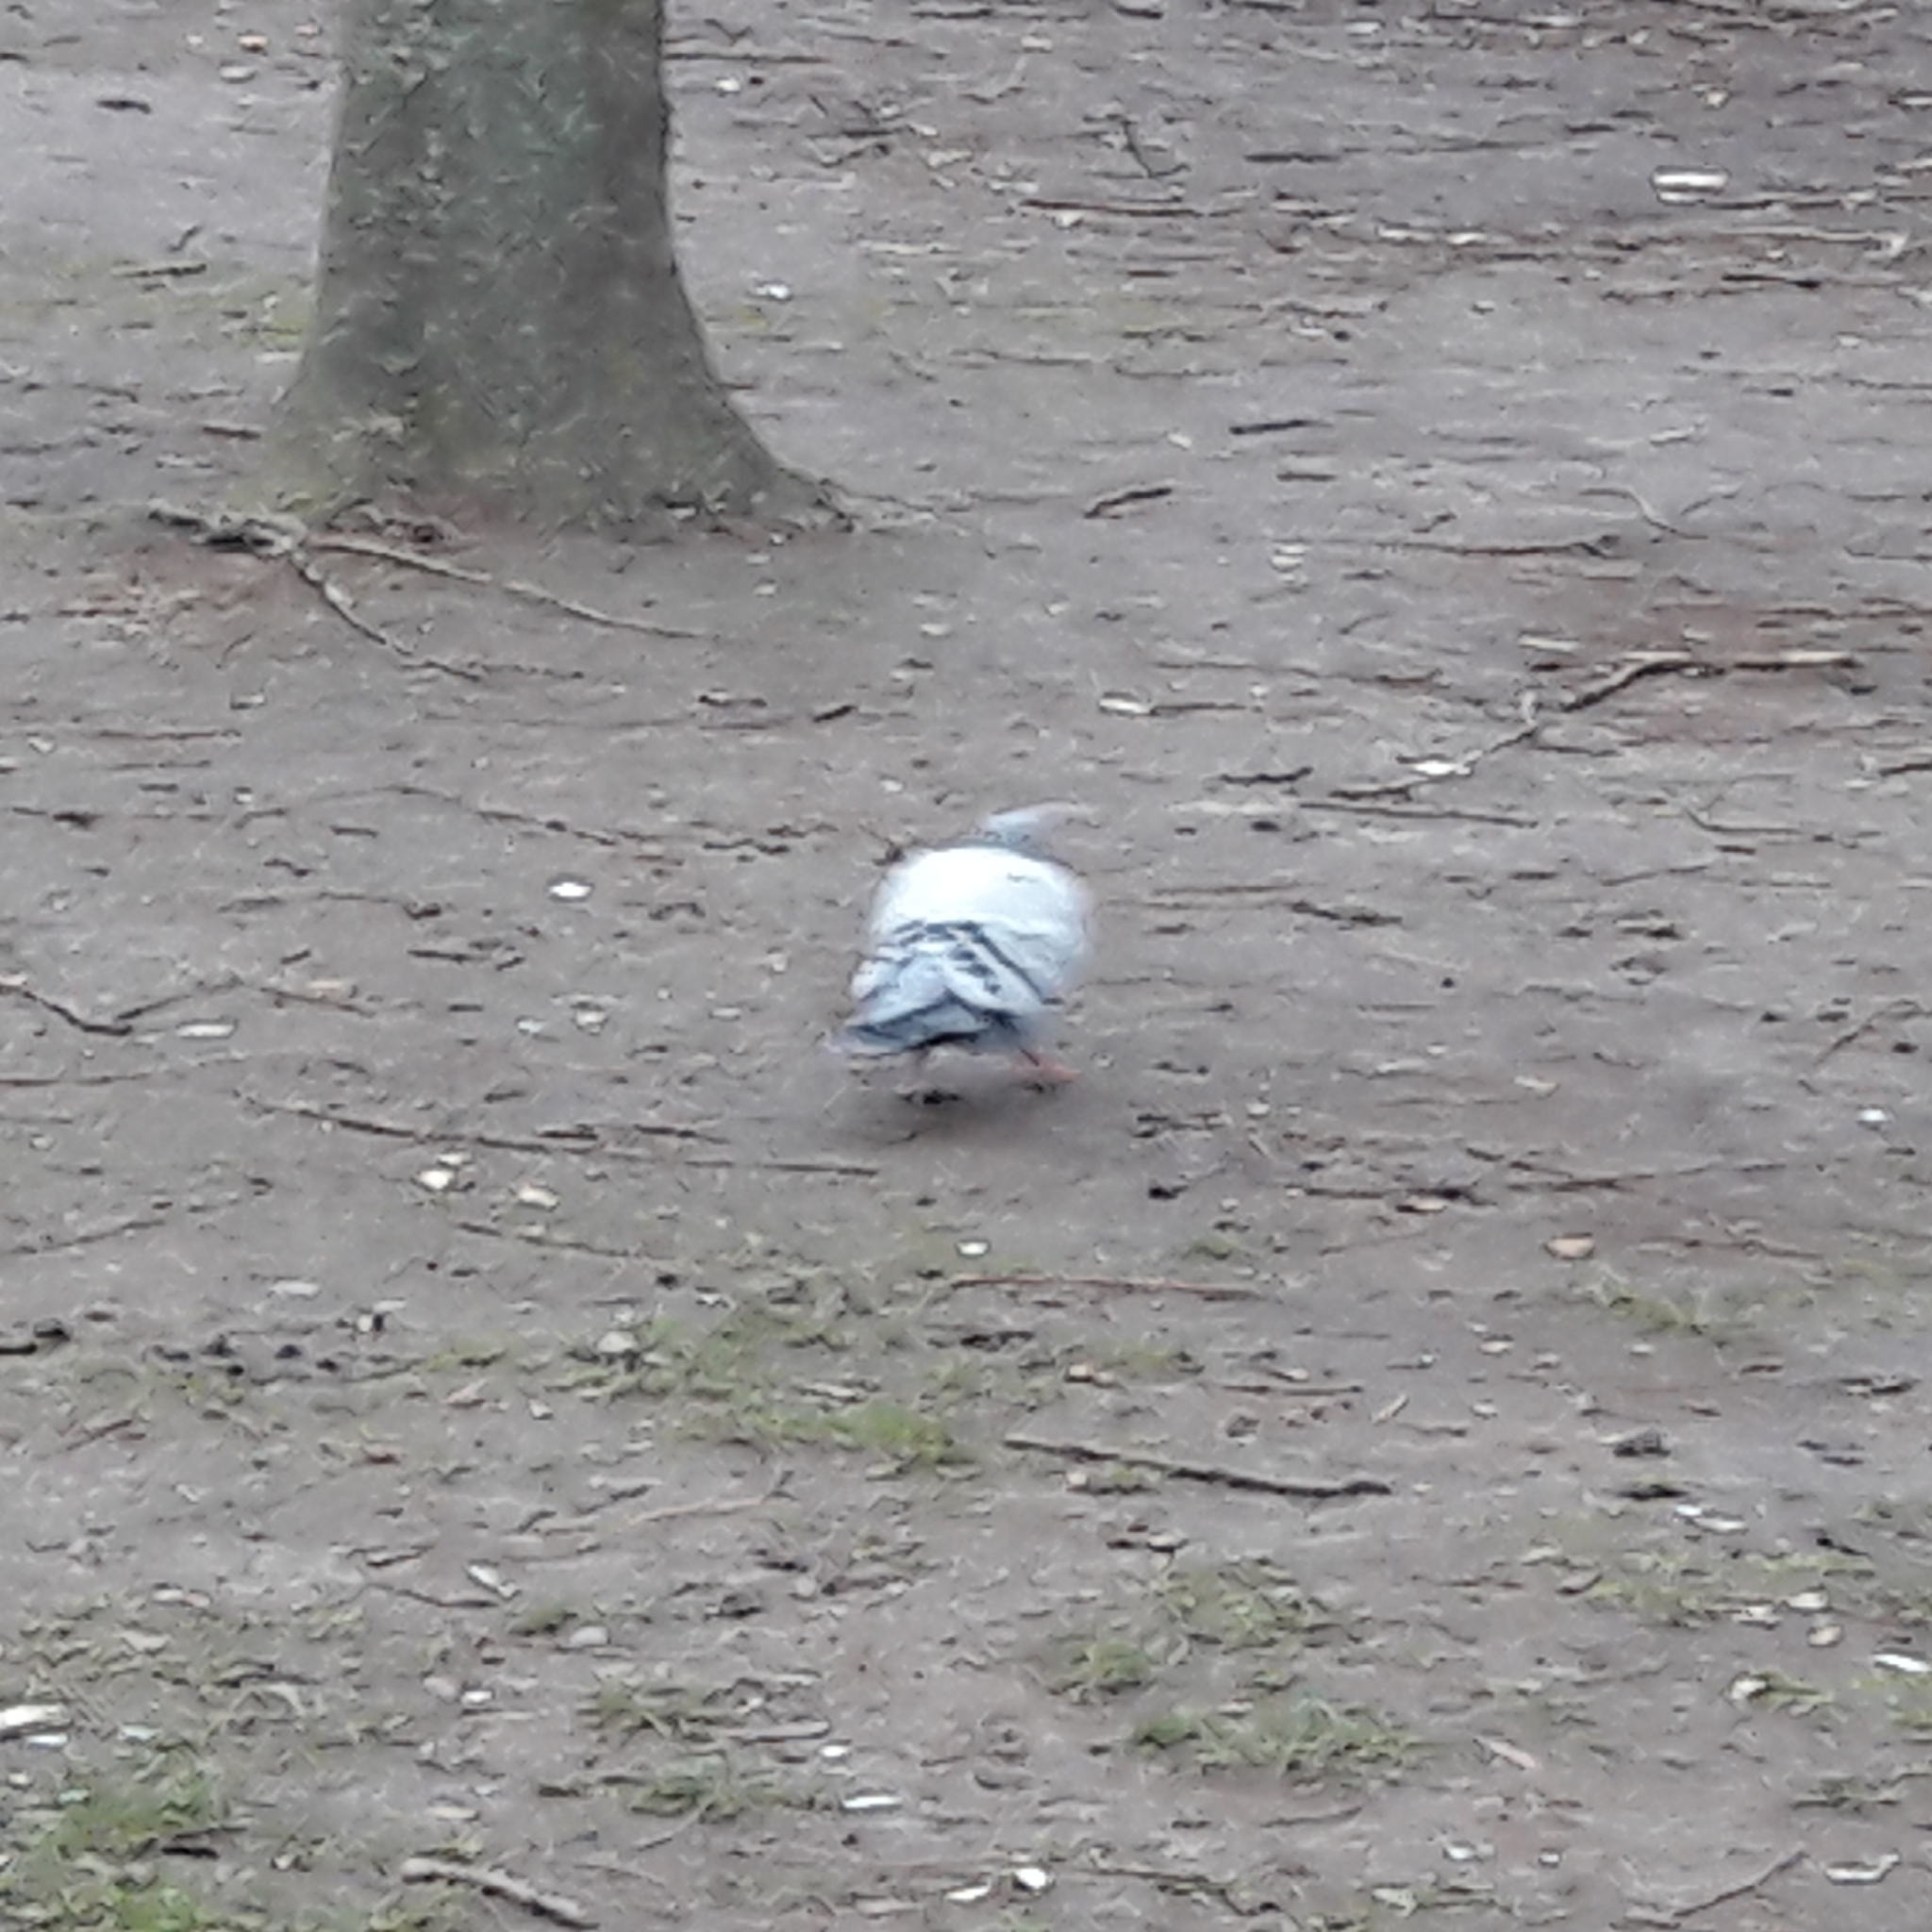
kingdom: Animalia
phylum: Chordata
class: Aves
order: Columbiformes
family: Columbidae
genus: Columba
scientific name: Columba livia
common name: Rock pigeon
